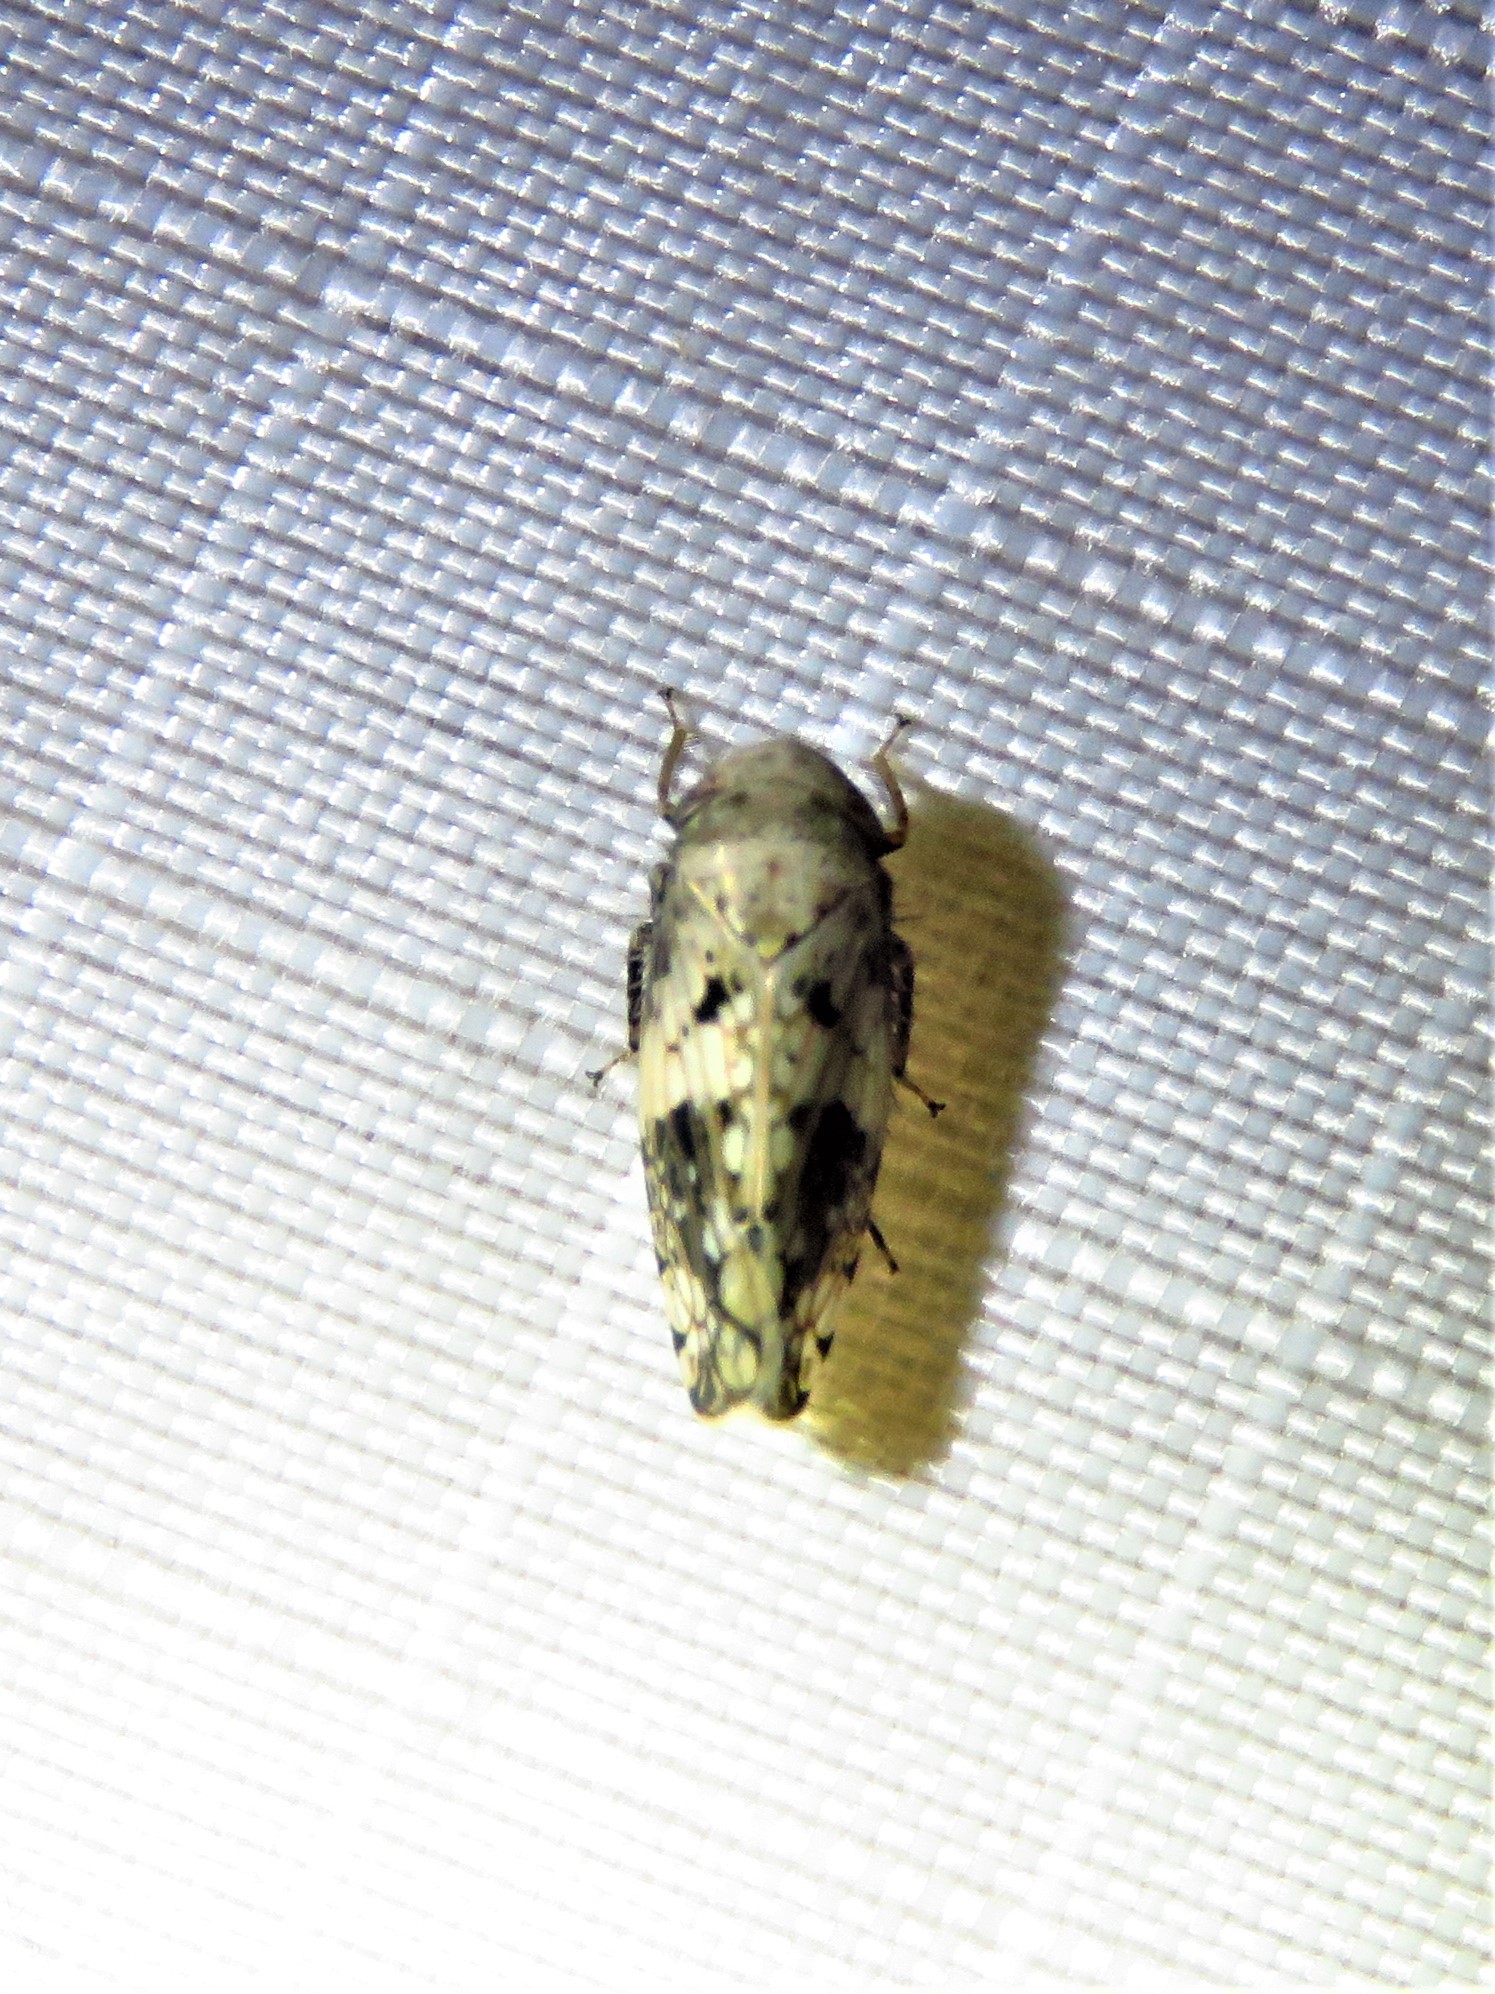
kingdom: Animalia
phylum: Arthropoda
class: Insecta
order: Hemiptera
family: Cicadellidae
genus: Menosoma
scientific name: Menosoma cinctum
